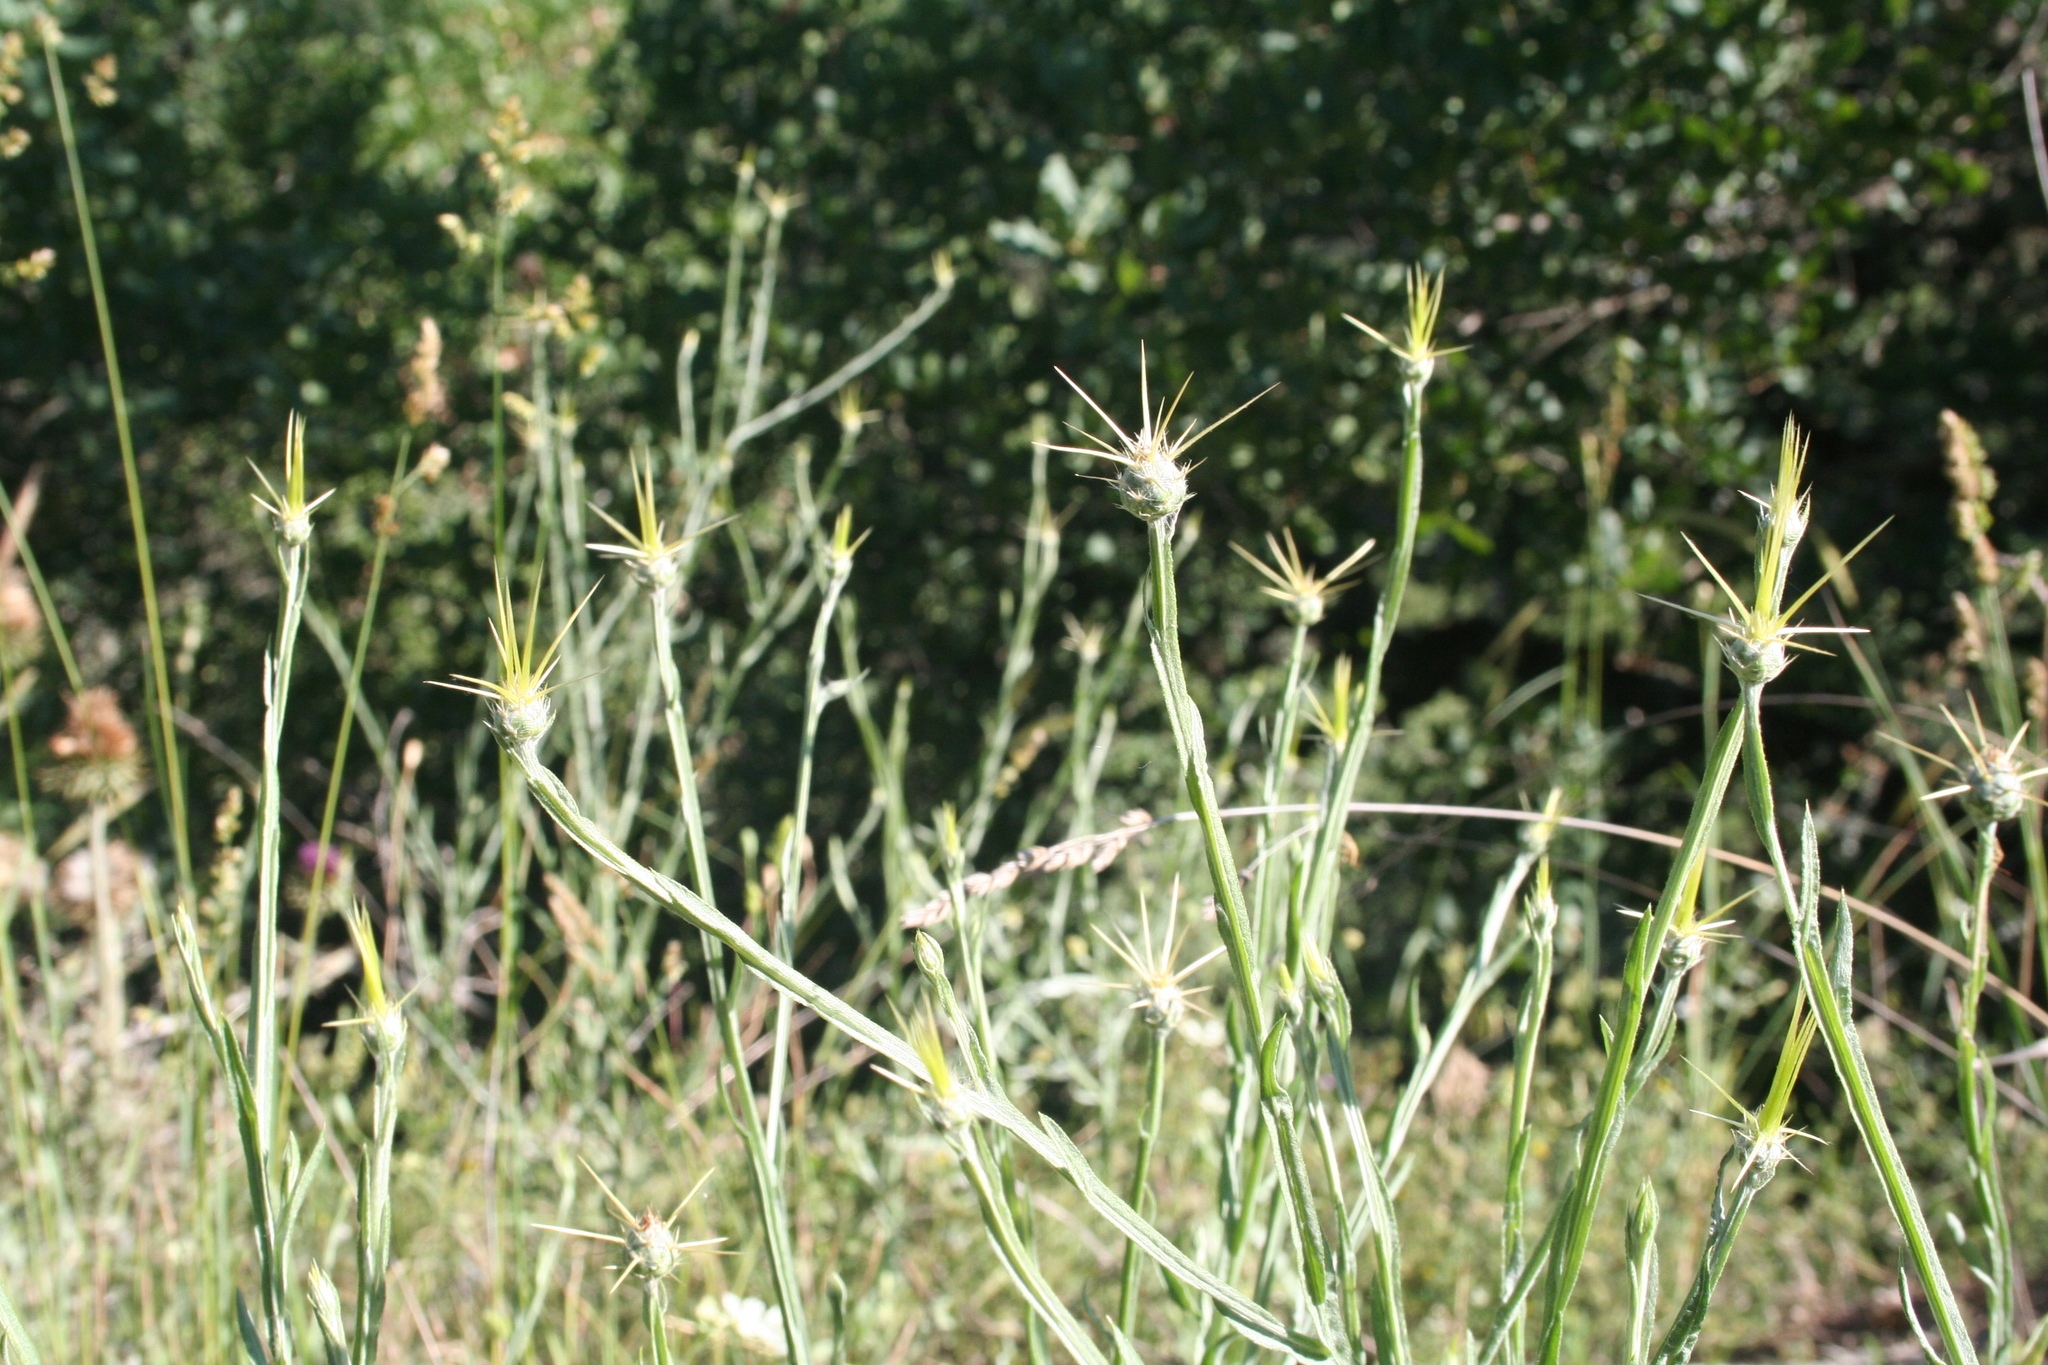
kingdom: Plantae
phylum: Tracheophyta
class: Magnoliopsida
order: Asterales
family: Asteraceae
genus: Centaurea
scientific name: Centaurea solstitialis
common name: Yellow star-thistle
